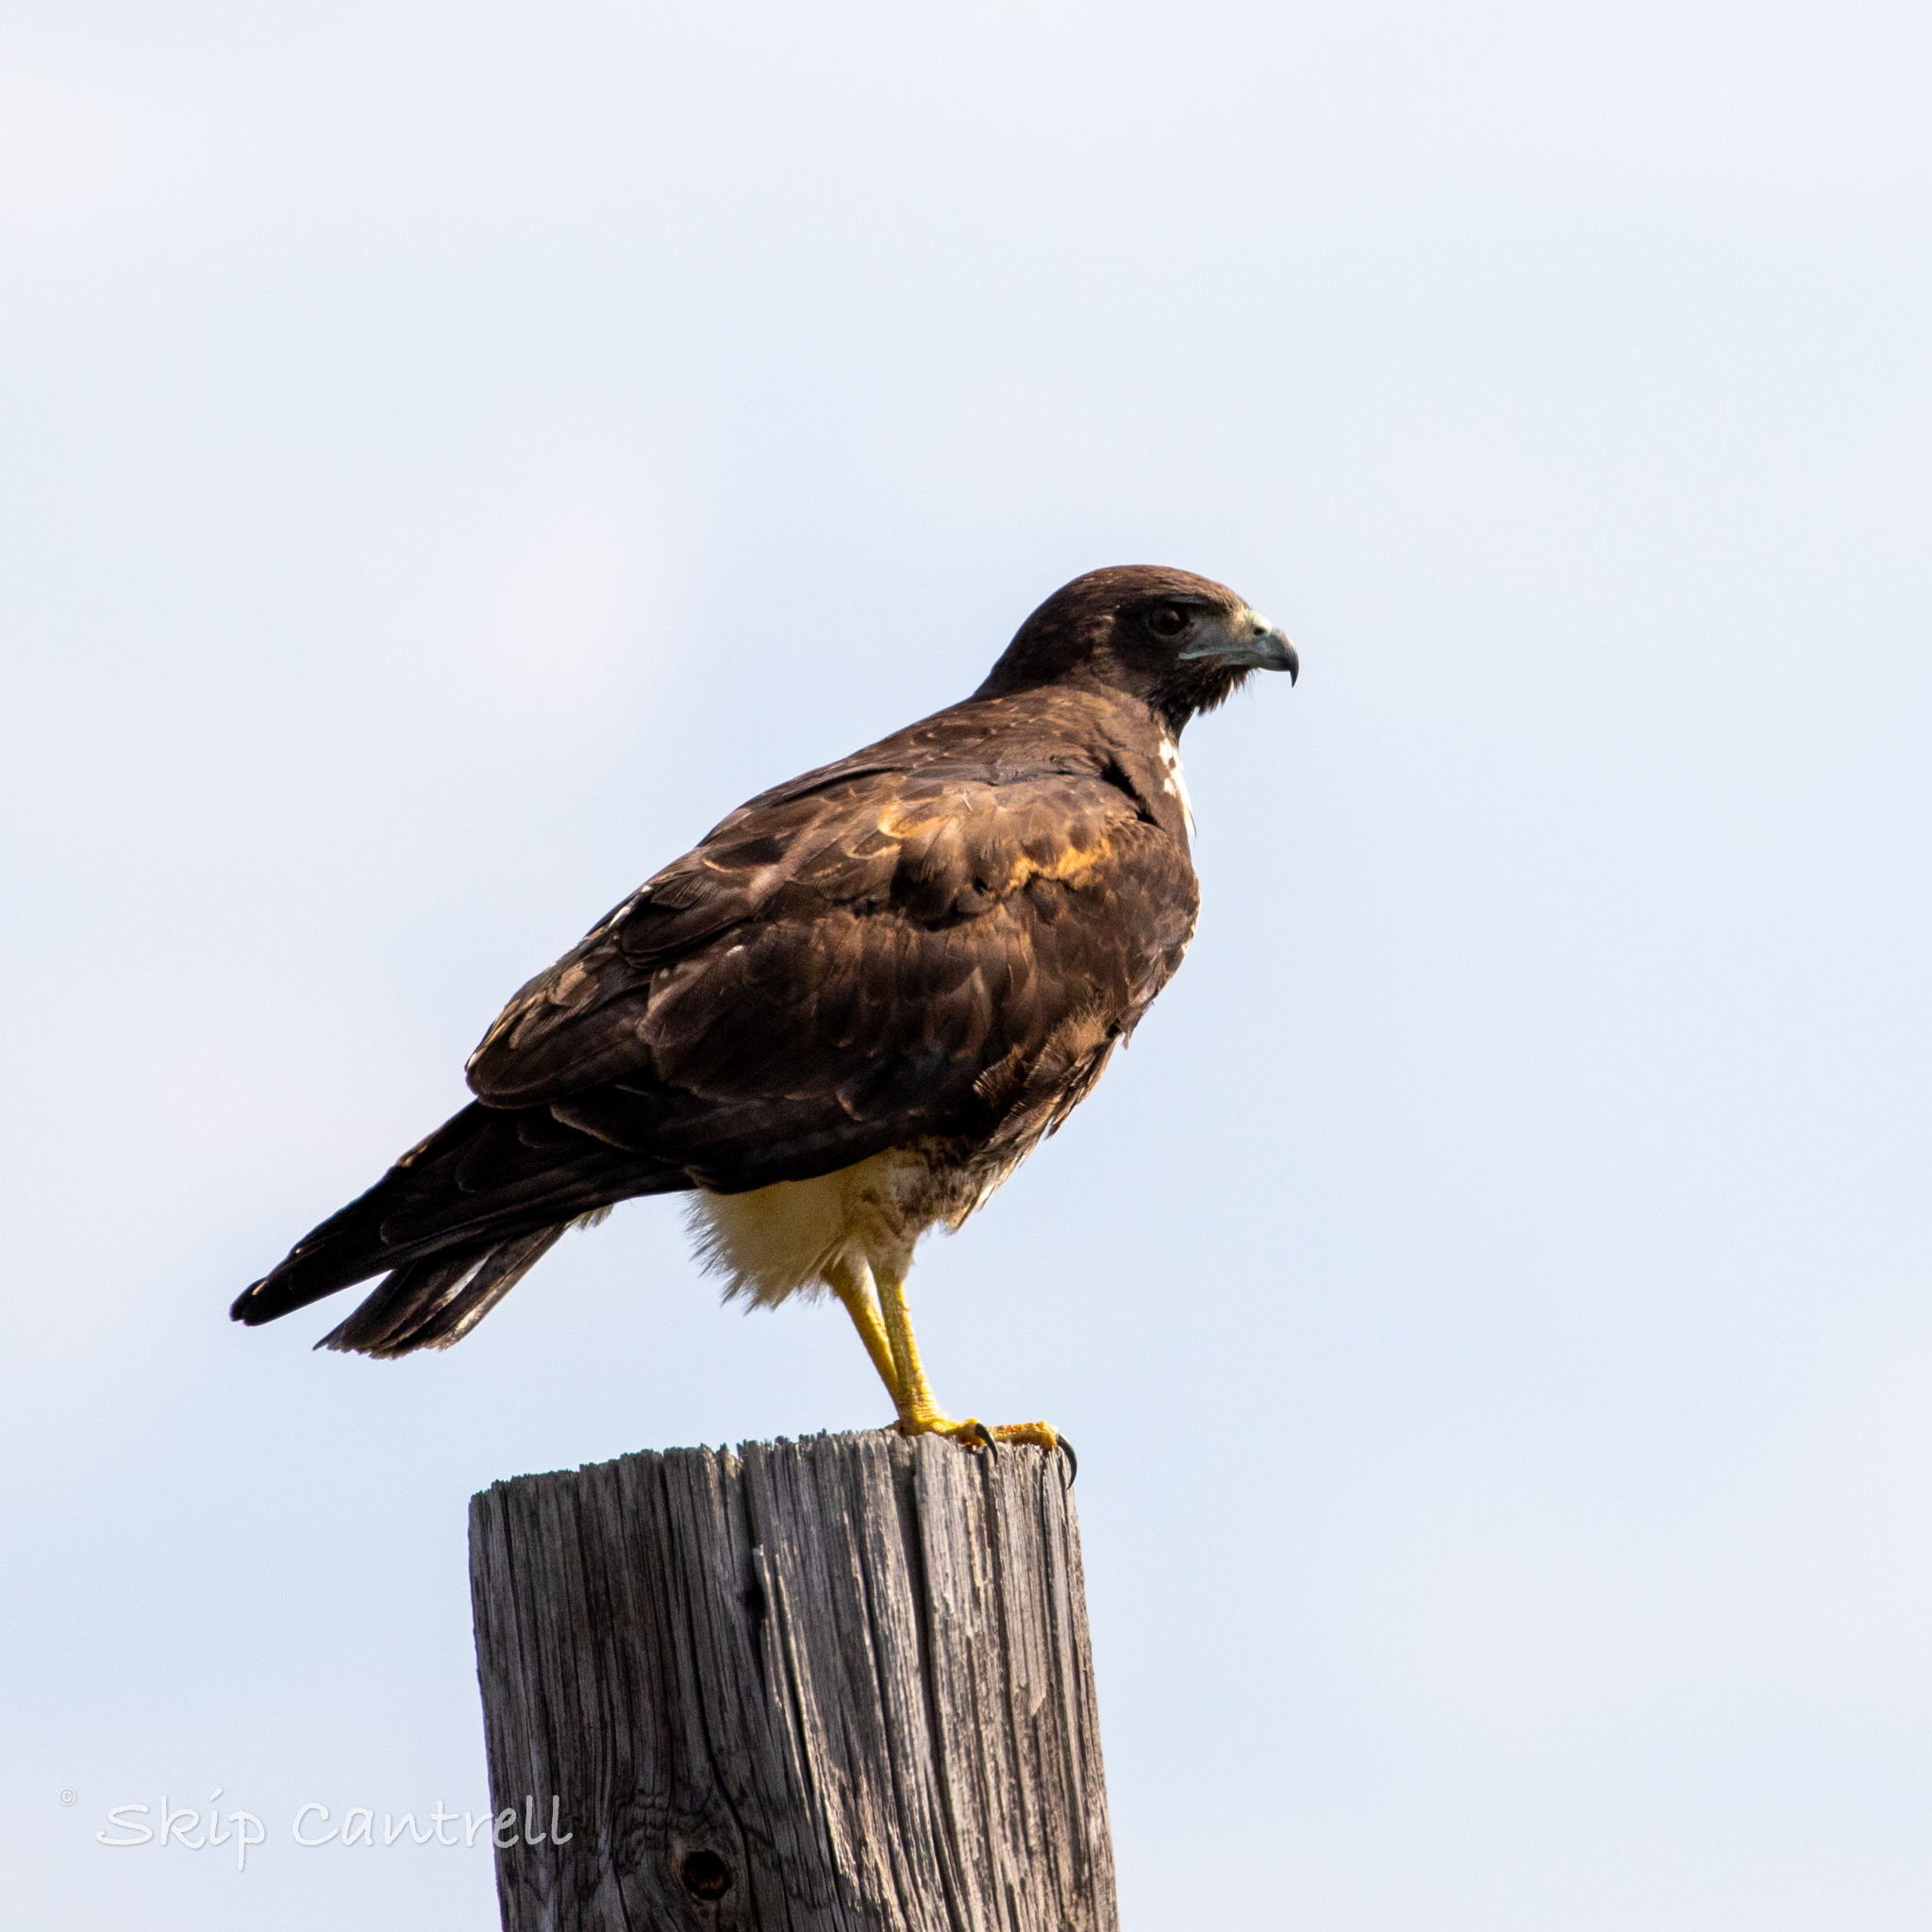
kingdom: Animalia
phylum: Chordata
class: Aves
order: Accipitriformes
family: Accipitridae
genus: Buteo
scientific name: Buteo albicaudatus
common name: White-tailed hawk
